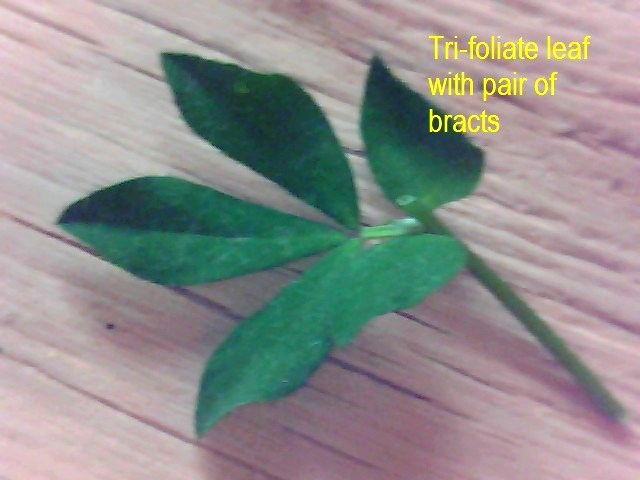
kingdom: Plantae
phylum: Tracheophyta
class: Magnoliopsida
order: Fabales
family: Fabaceae
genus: Lotus
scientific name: Lotus pedunculatus
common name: Greater birdsfoot-trefoil
